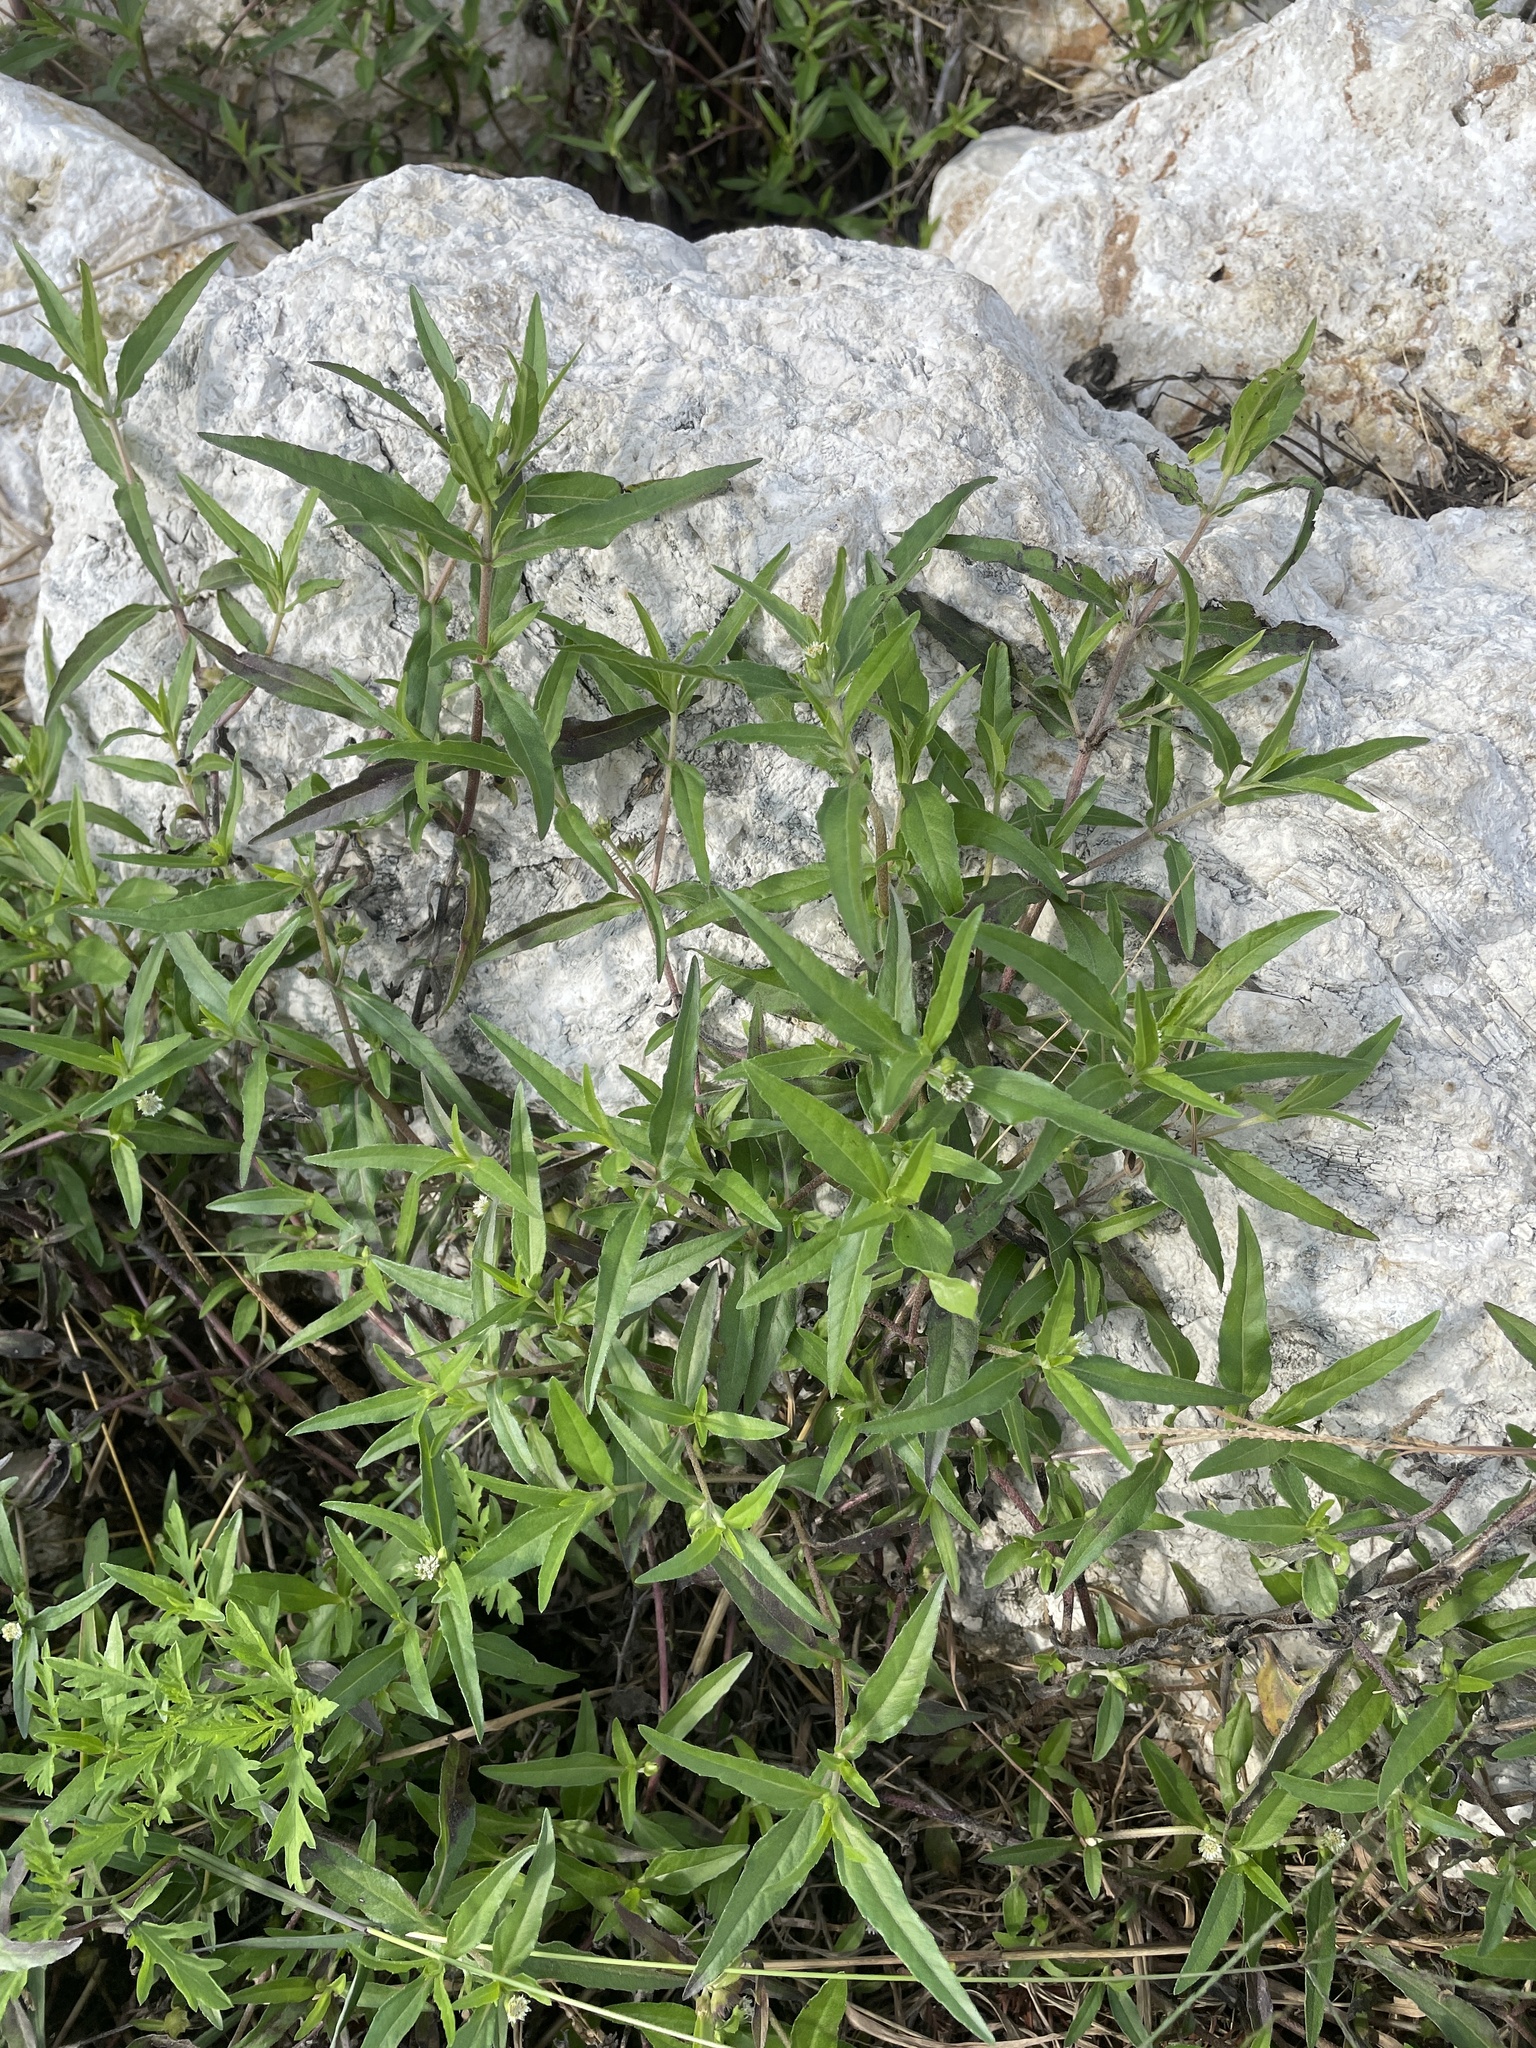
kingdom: Plantae
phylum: Tracheophyta
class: Magnoliopsida
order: Asterales
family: Asteraceae
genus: Eclipta
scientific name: Eclipta prostrata
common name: False daisy
